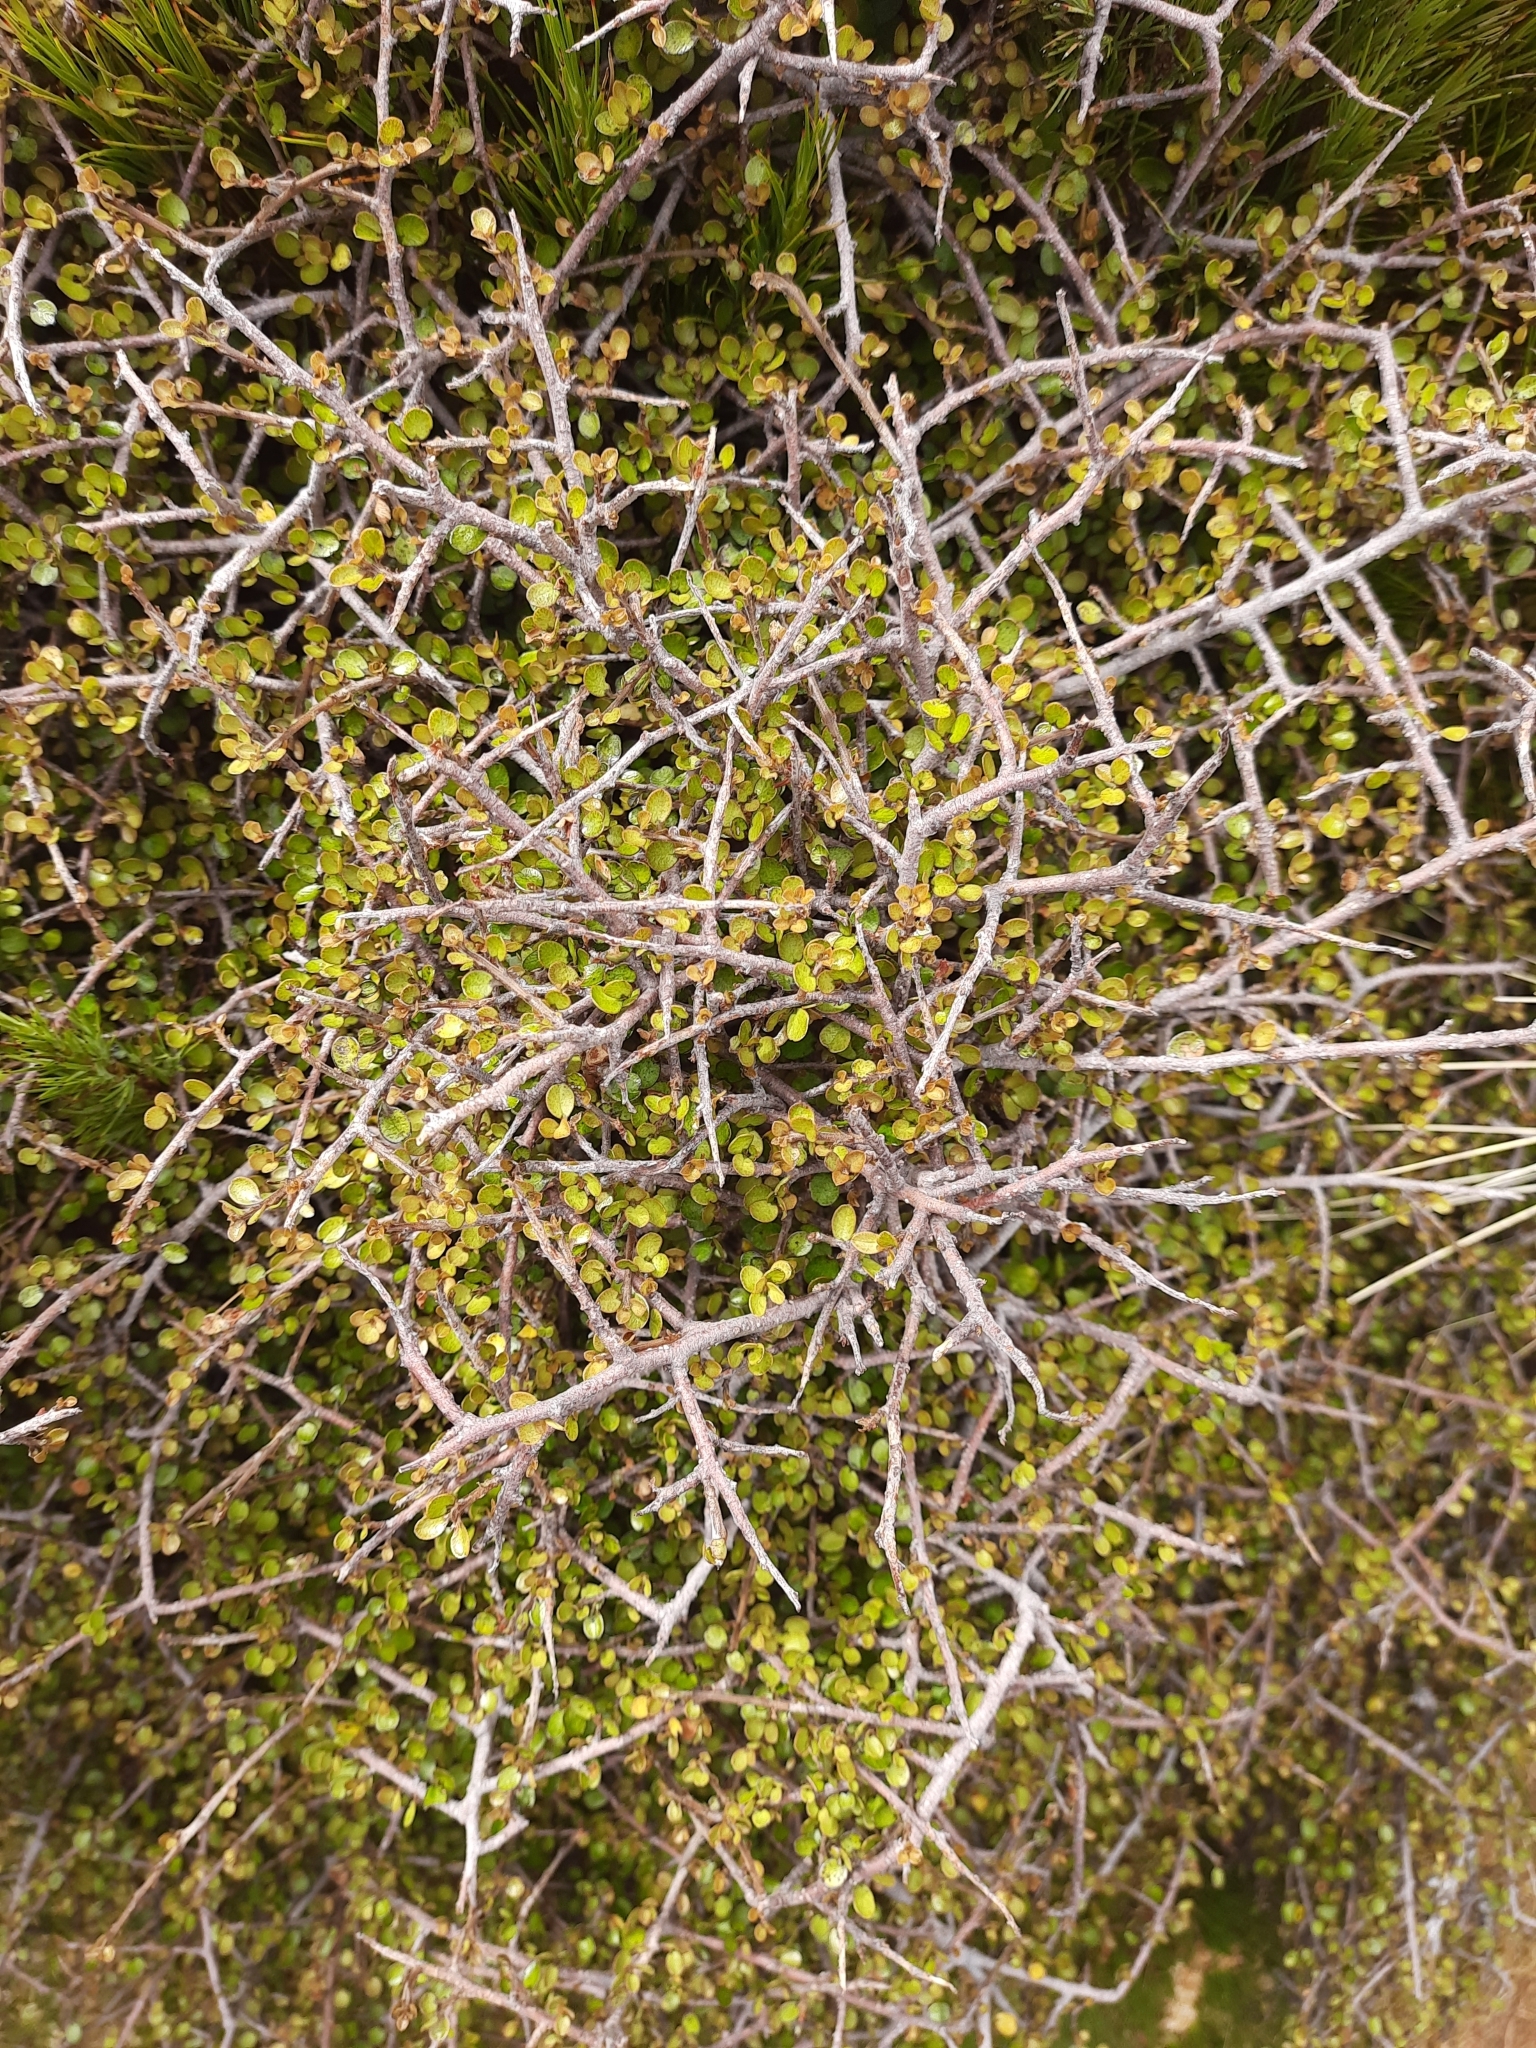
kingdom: Plantae
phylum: Tracheophyta
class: Magnoliopsida
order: Ericales
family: Primulaceae
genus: Myrsine
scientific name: Myrsine divaricata
